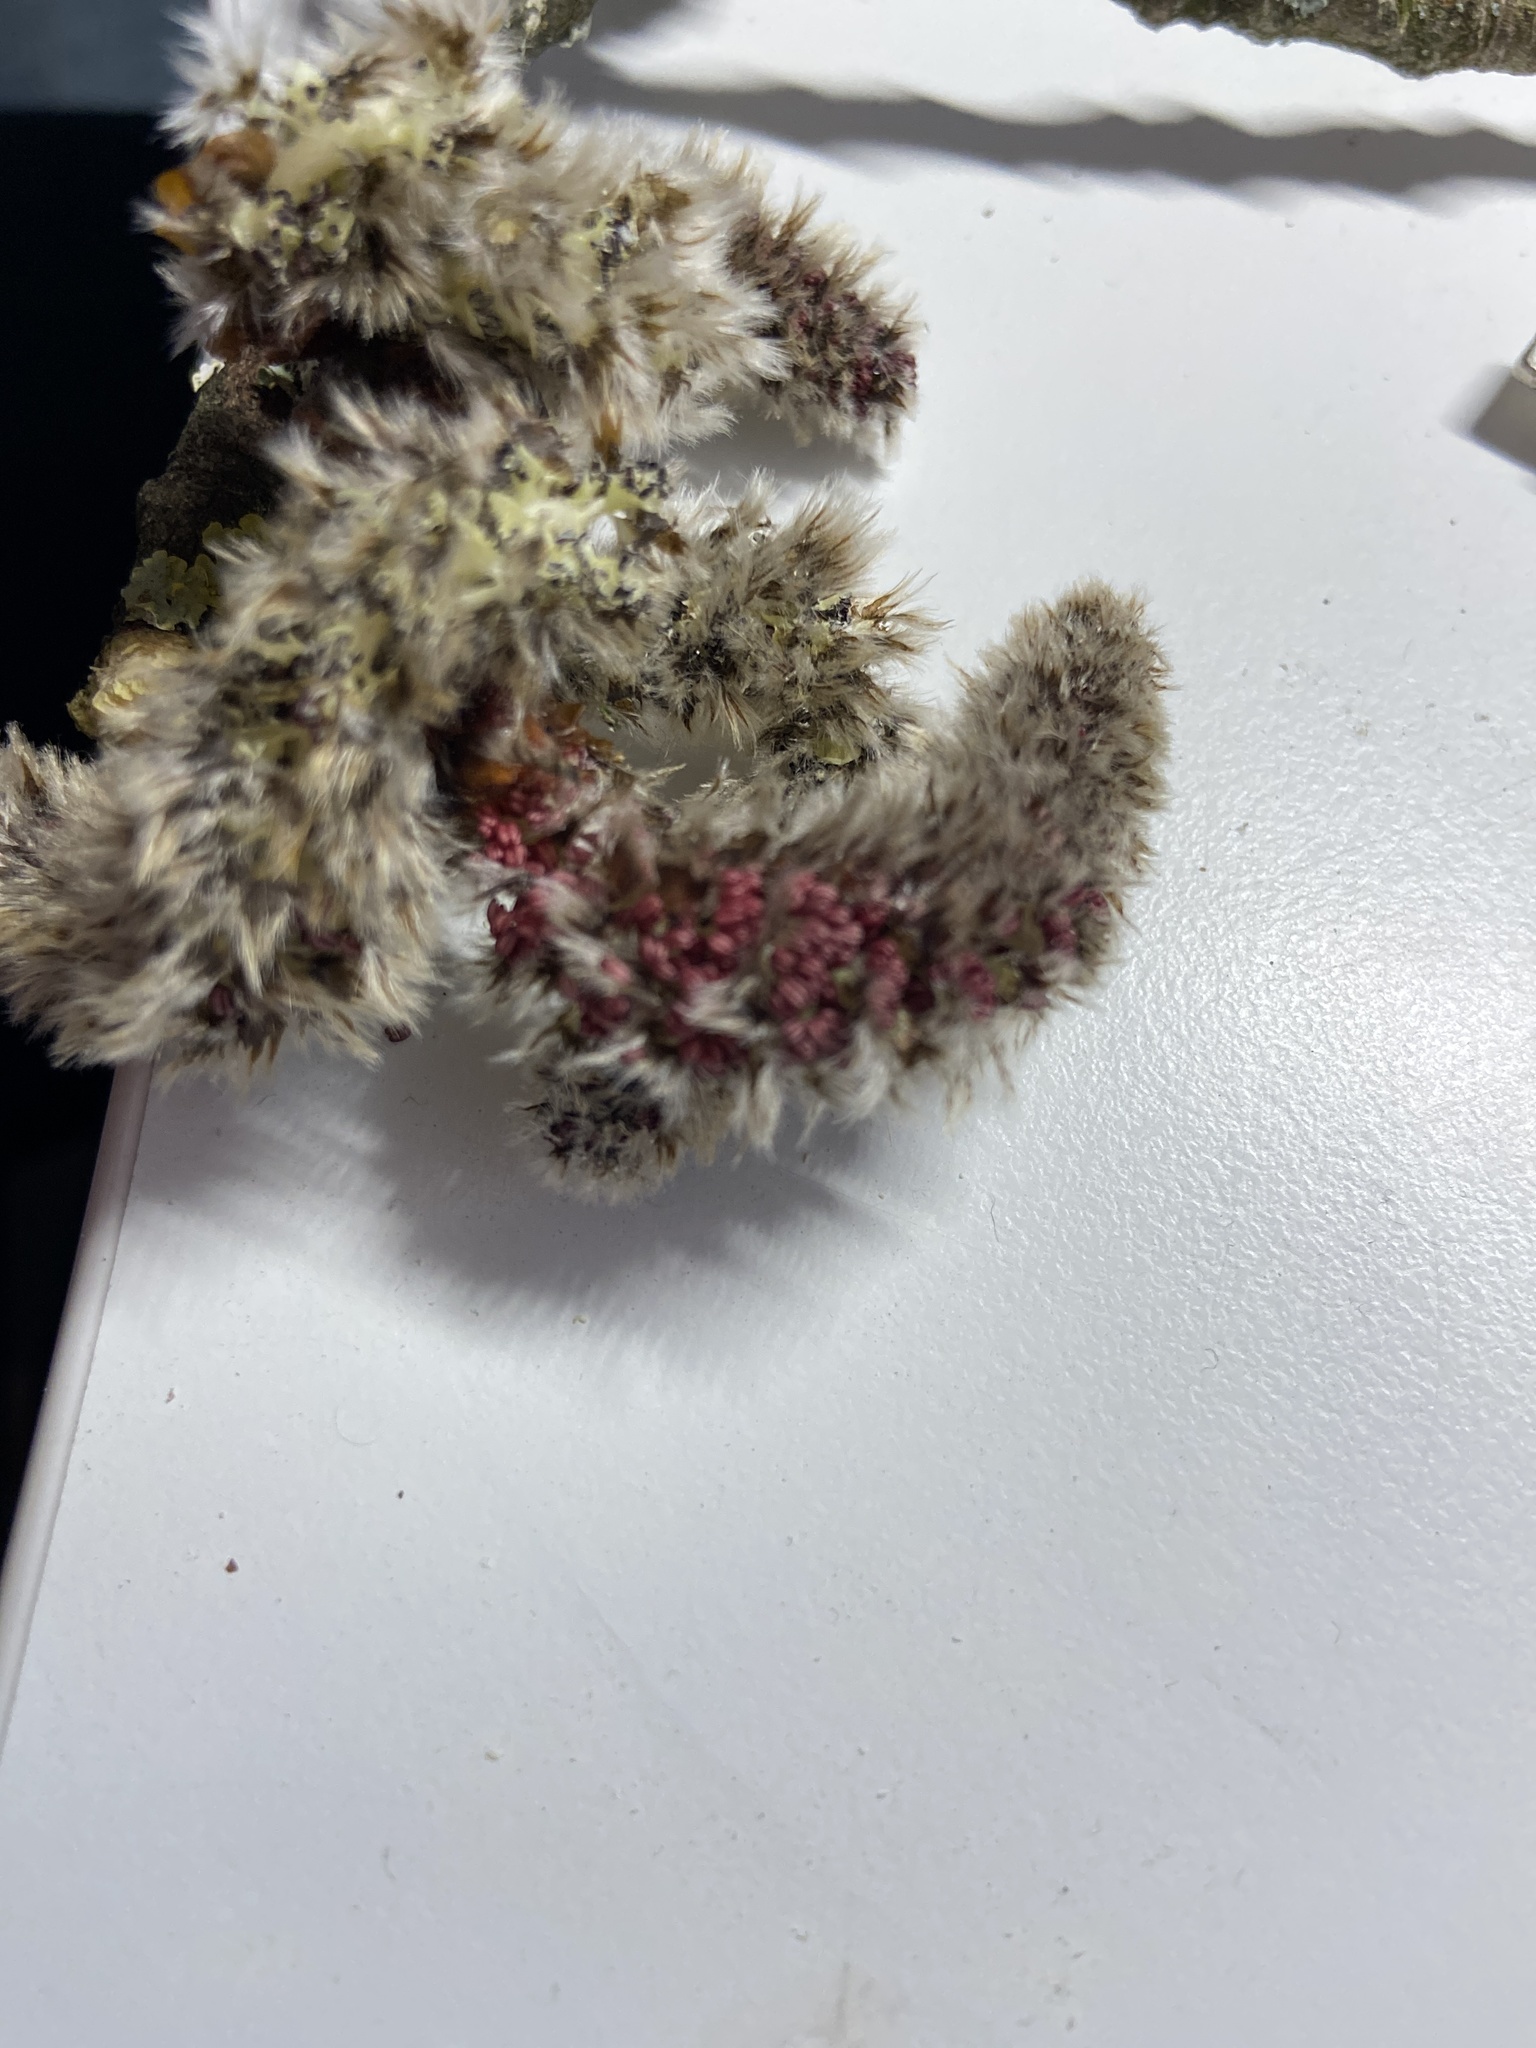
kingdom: Plantae
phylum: Tracheophyta
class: Magnoliopsida
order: Malpighiales
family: Salicaceae
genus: Populus
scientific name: Populus tremula
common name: European aspen
